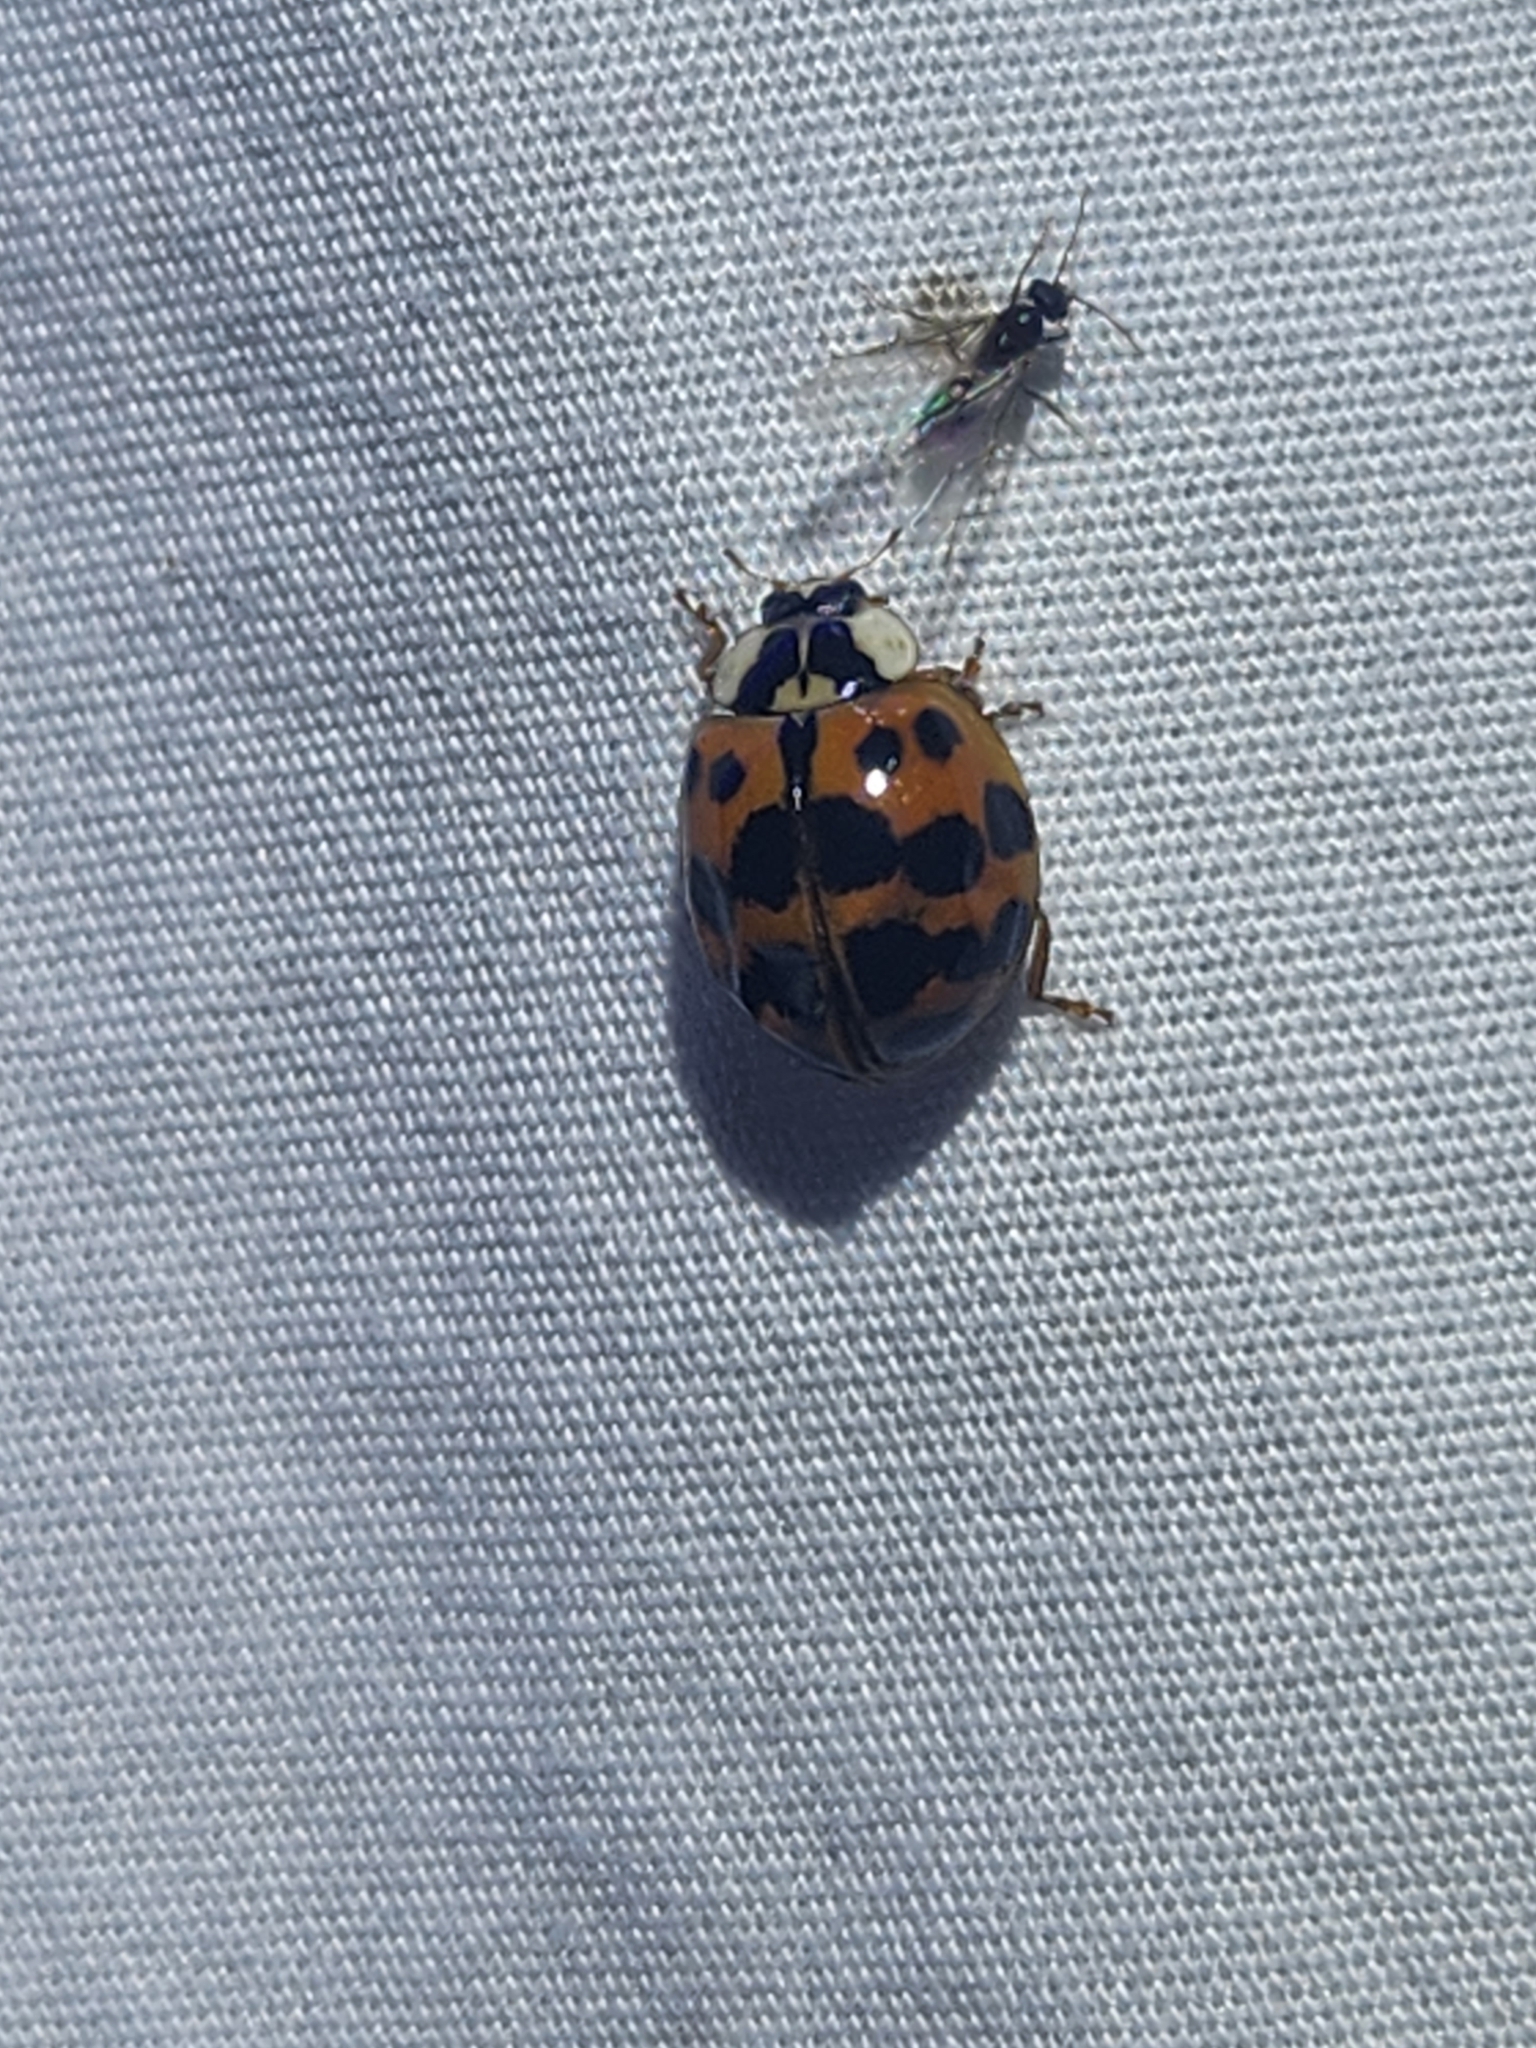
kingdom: Animalia
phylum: Arthropoda
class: Insecta
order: Coleoptera
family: Coccinellidae
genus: Harmonia
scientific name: Harmonia axyridis
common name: Harlequin ladybird
